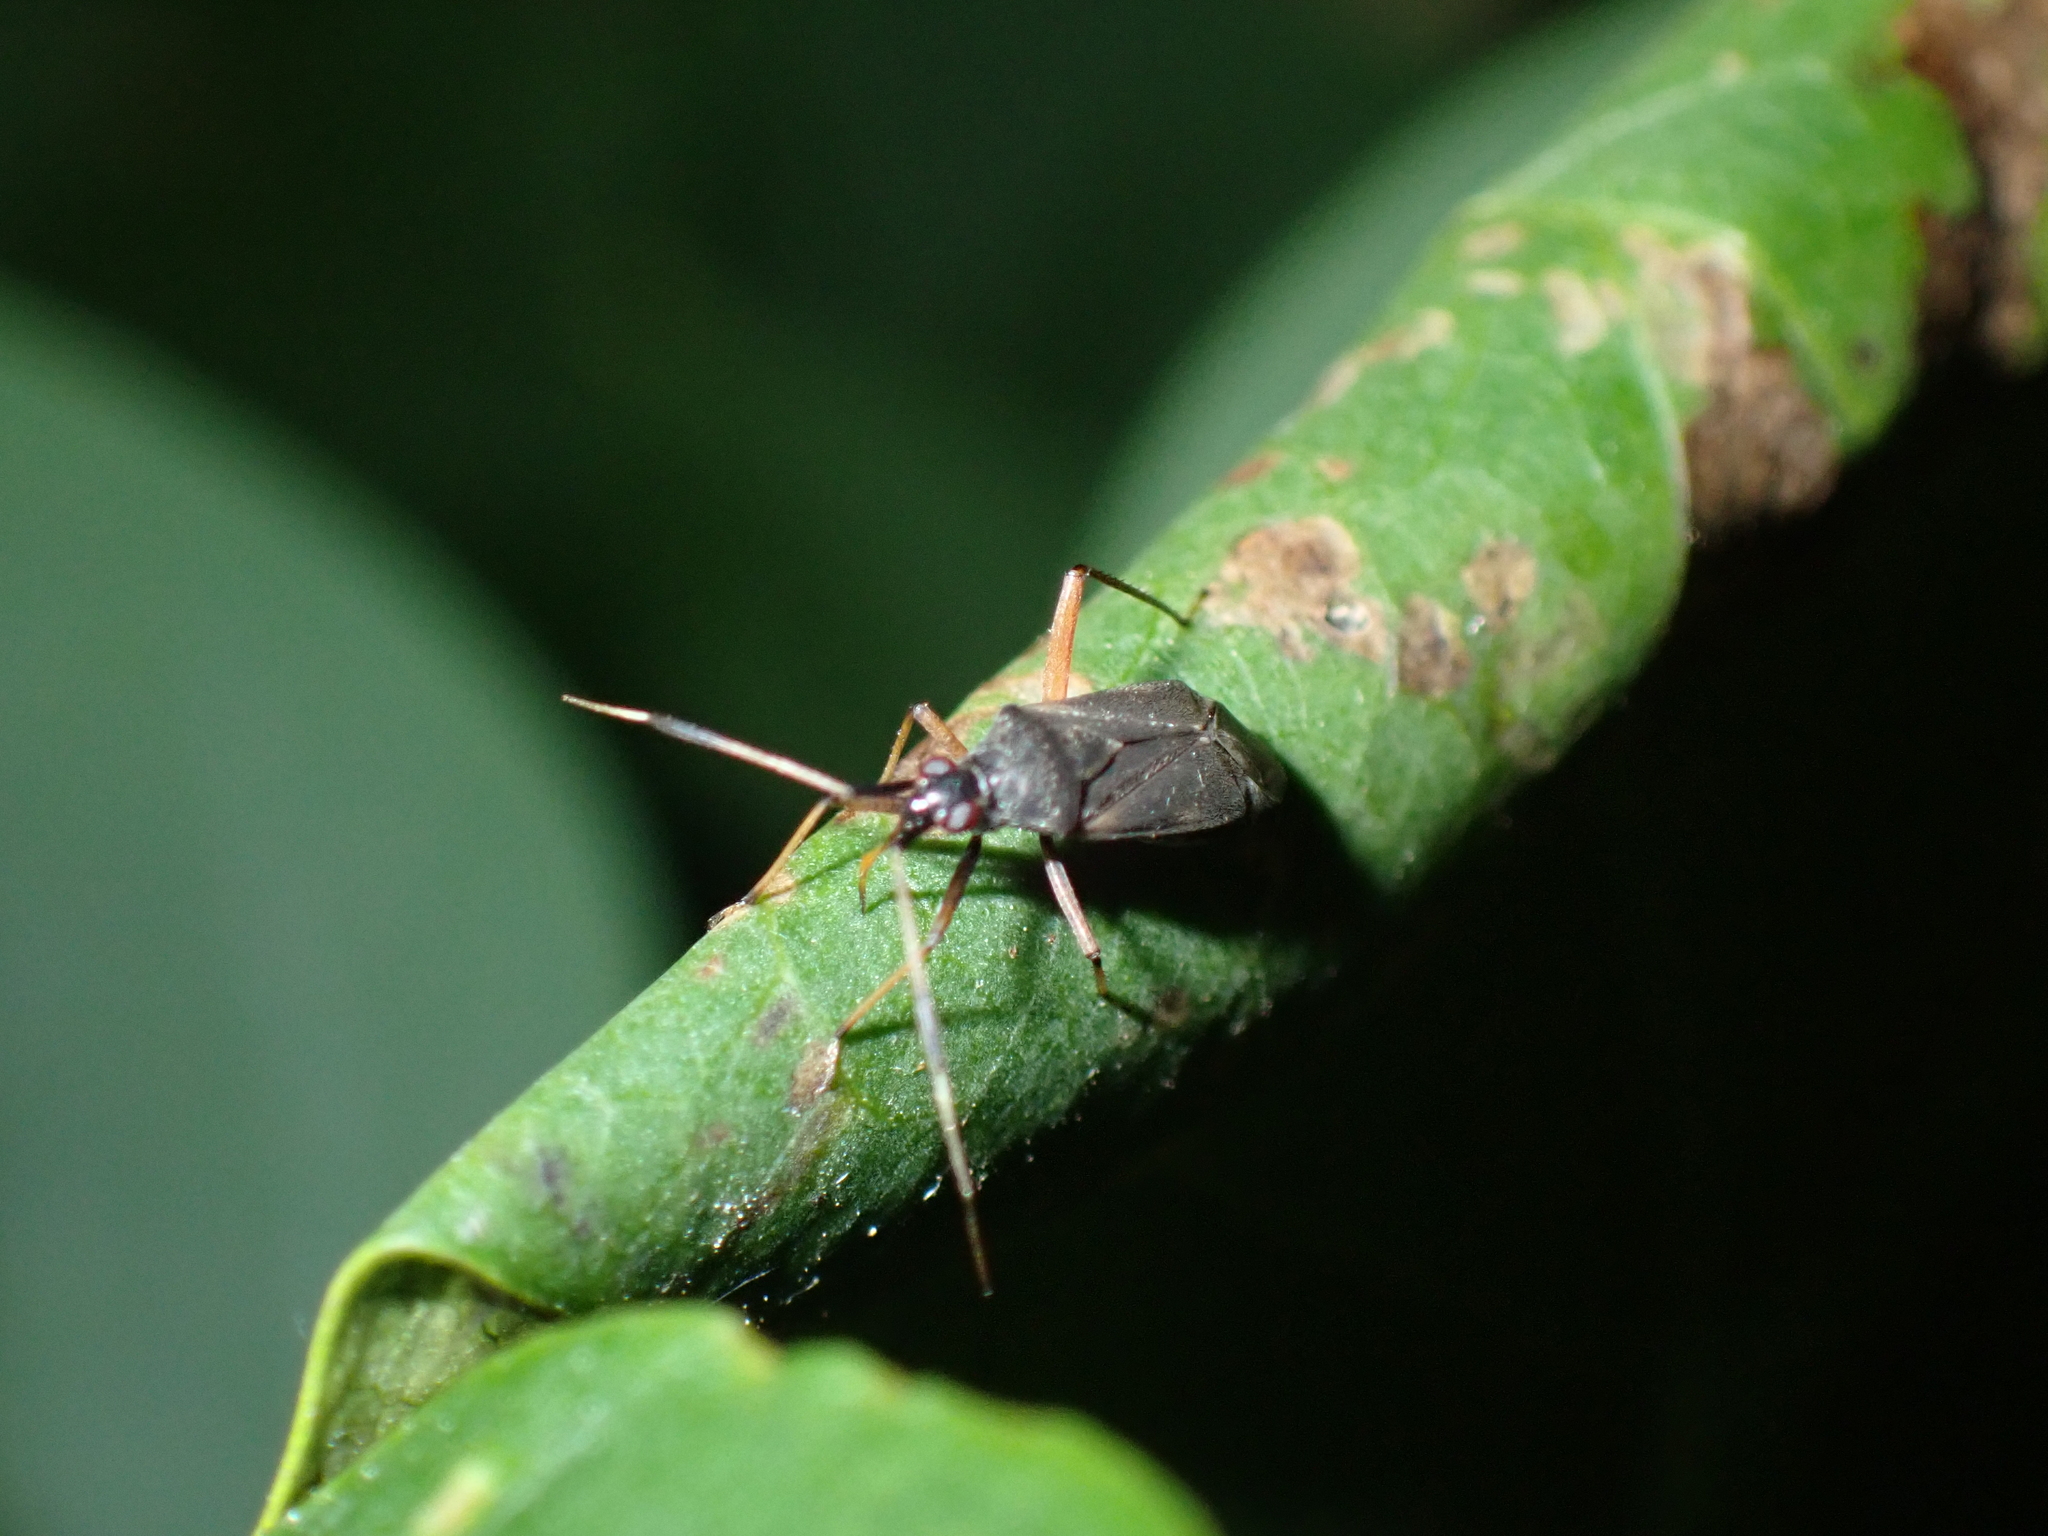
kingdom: Animalia
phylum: Arthropoda
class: Insecta
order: Hemiptera
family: Miridae
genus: Closterotomus
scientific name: Closterotomus biclavatus
